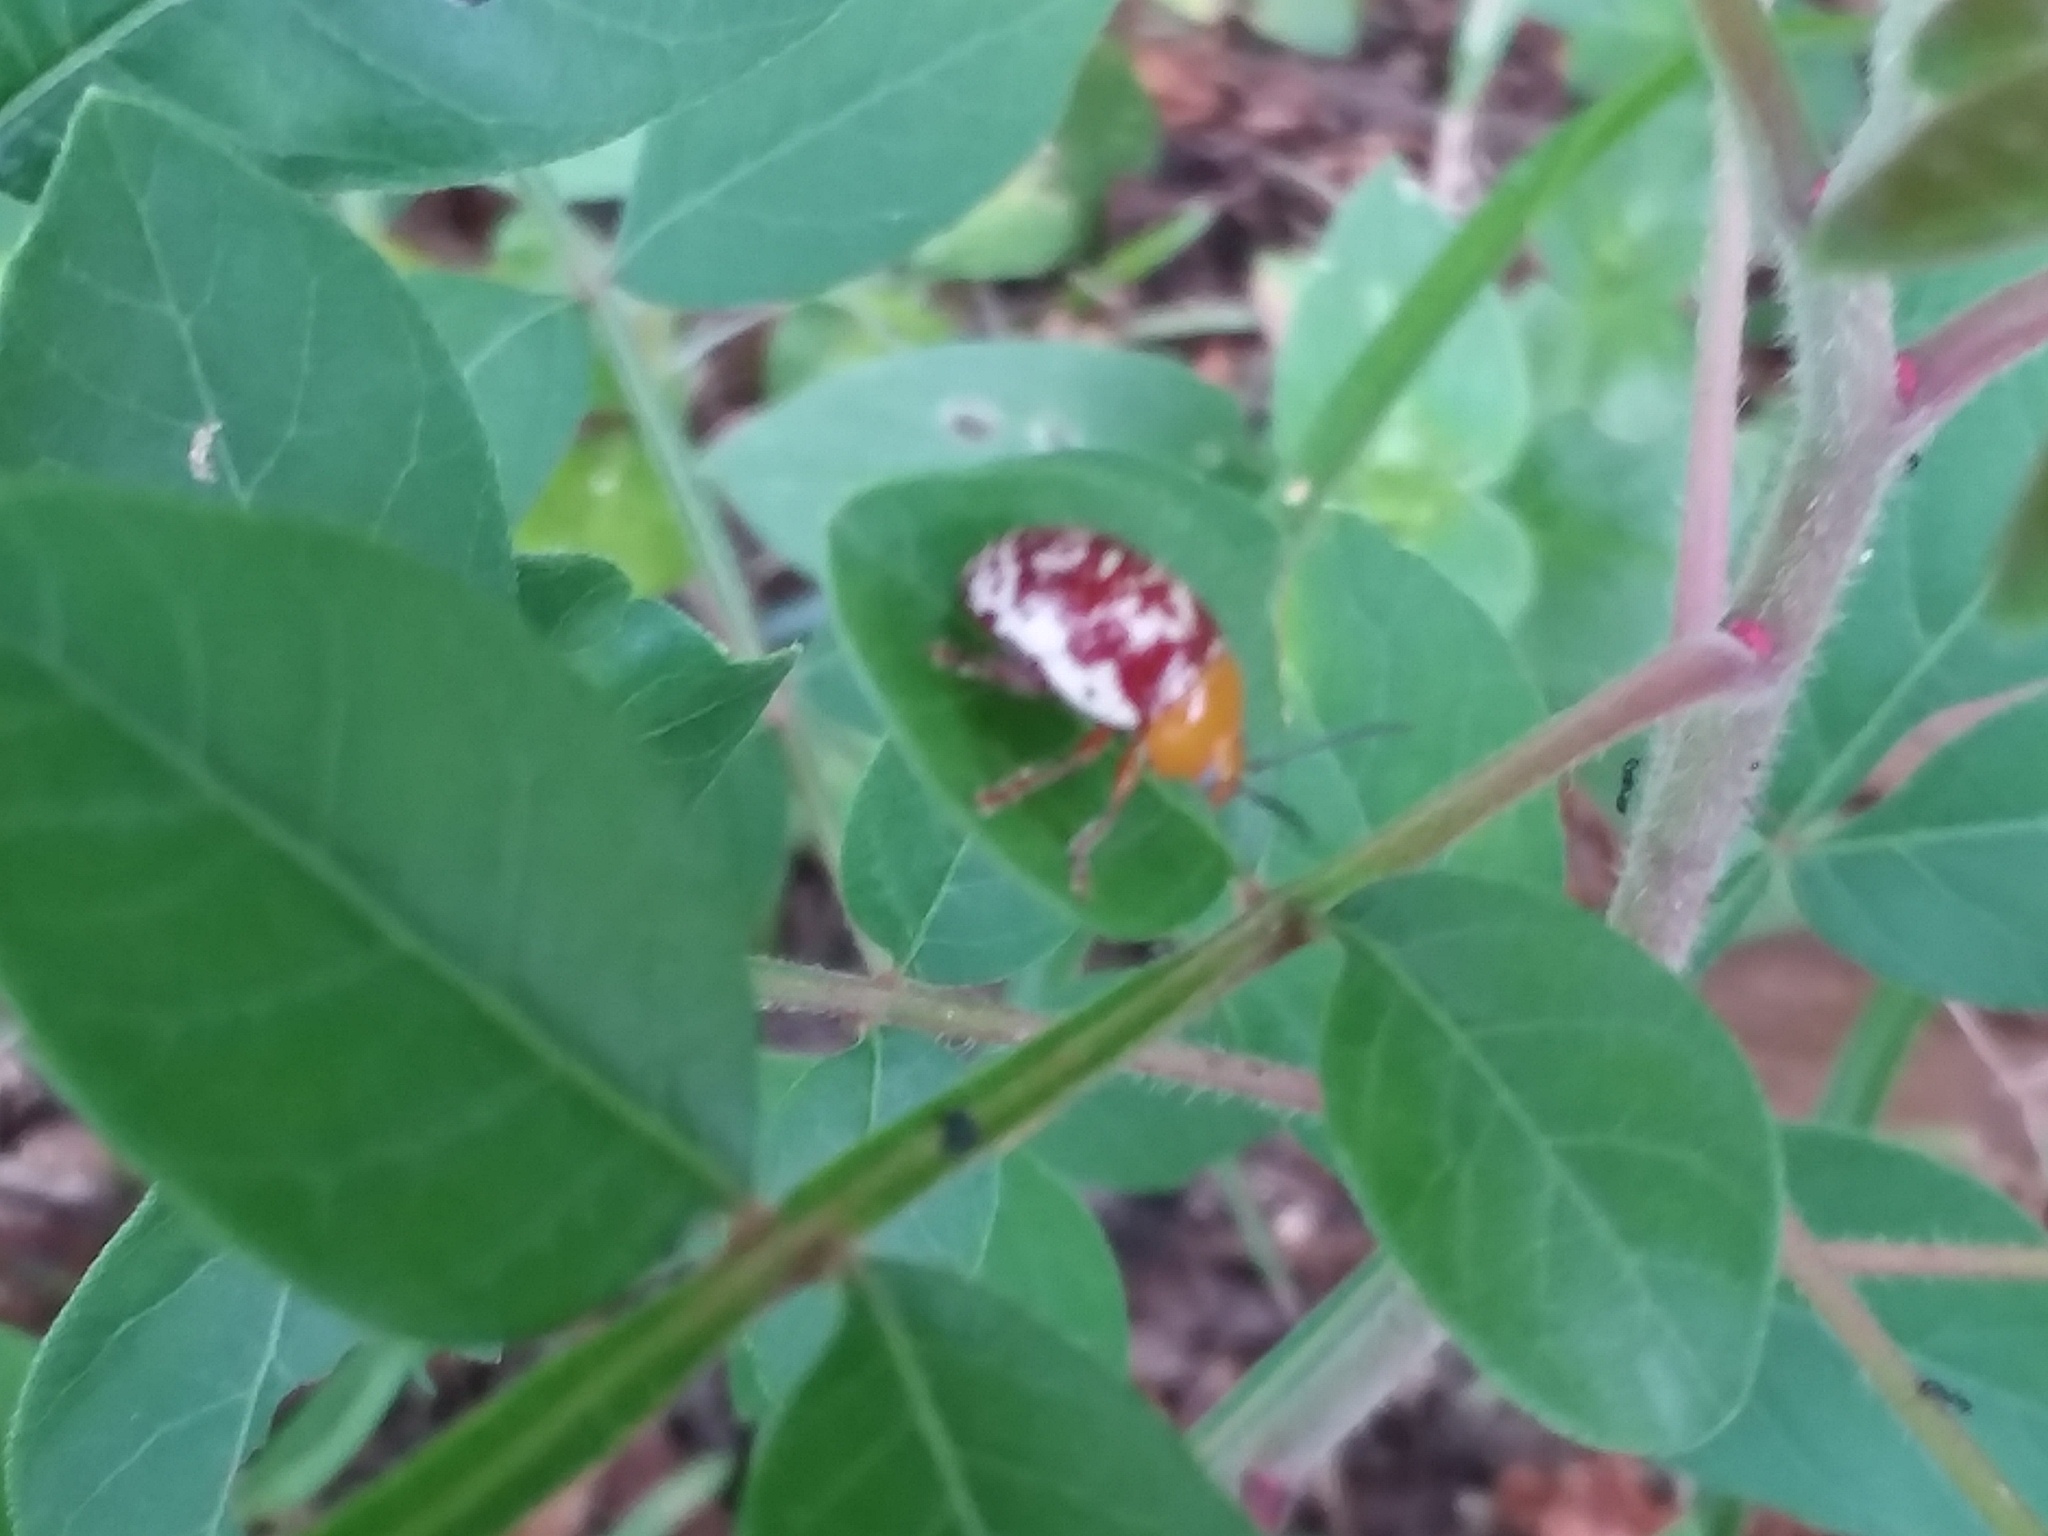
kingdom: Animalia
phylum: Arthropoda
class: Insecta
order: Coleoptera
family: Chrysomelidae
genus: Blepharida
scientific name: Blepharida rhois
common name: Sumac flea beetle
